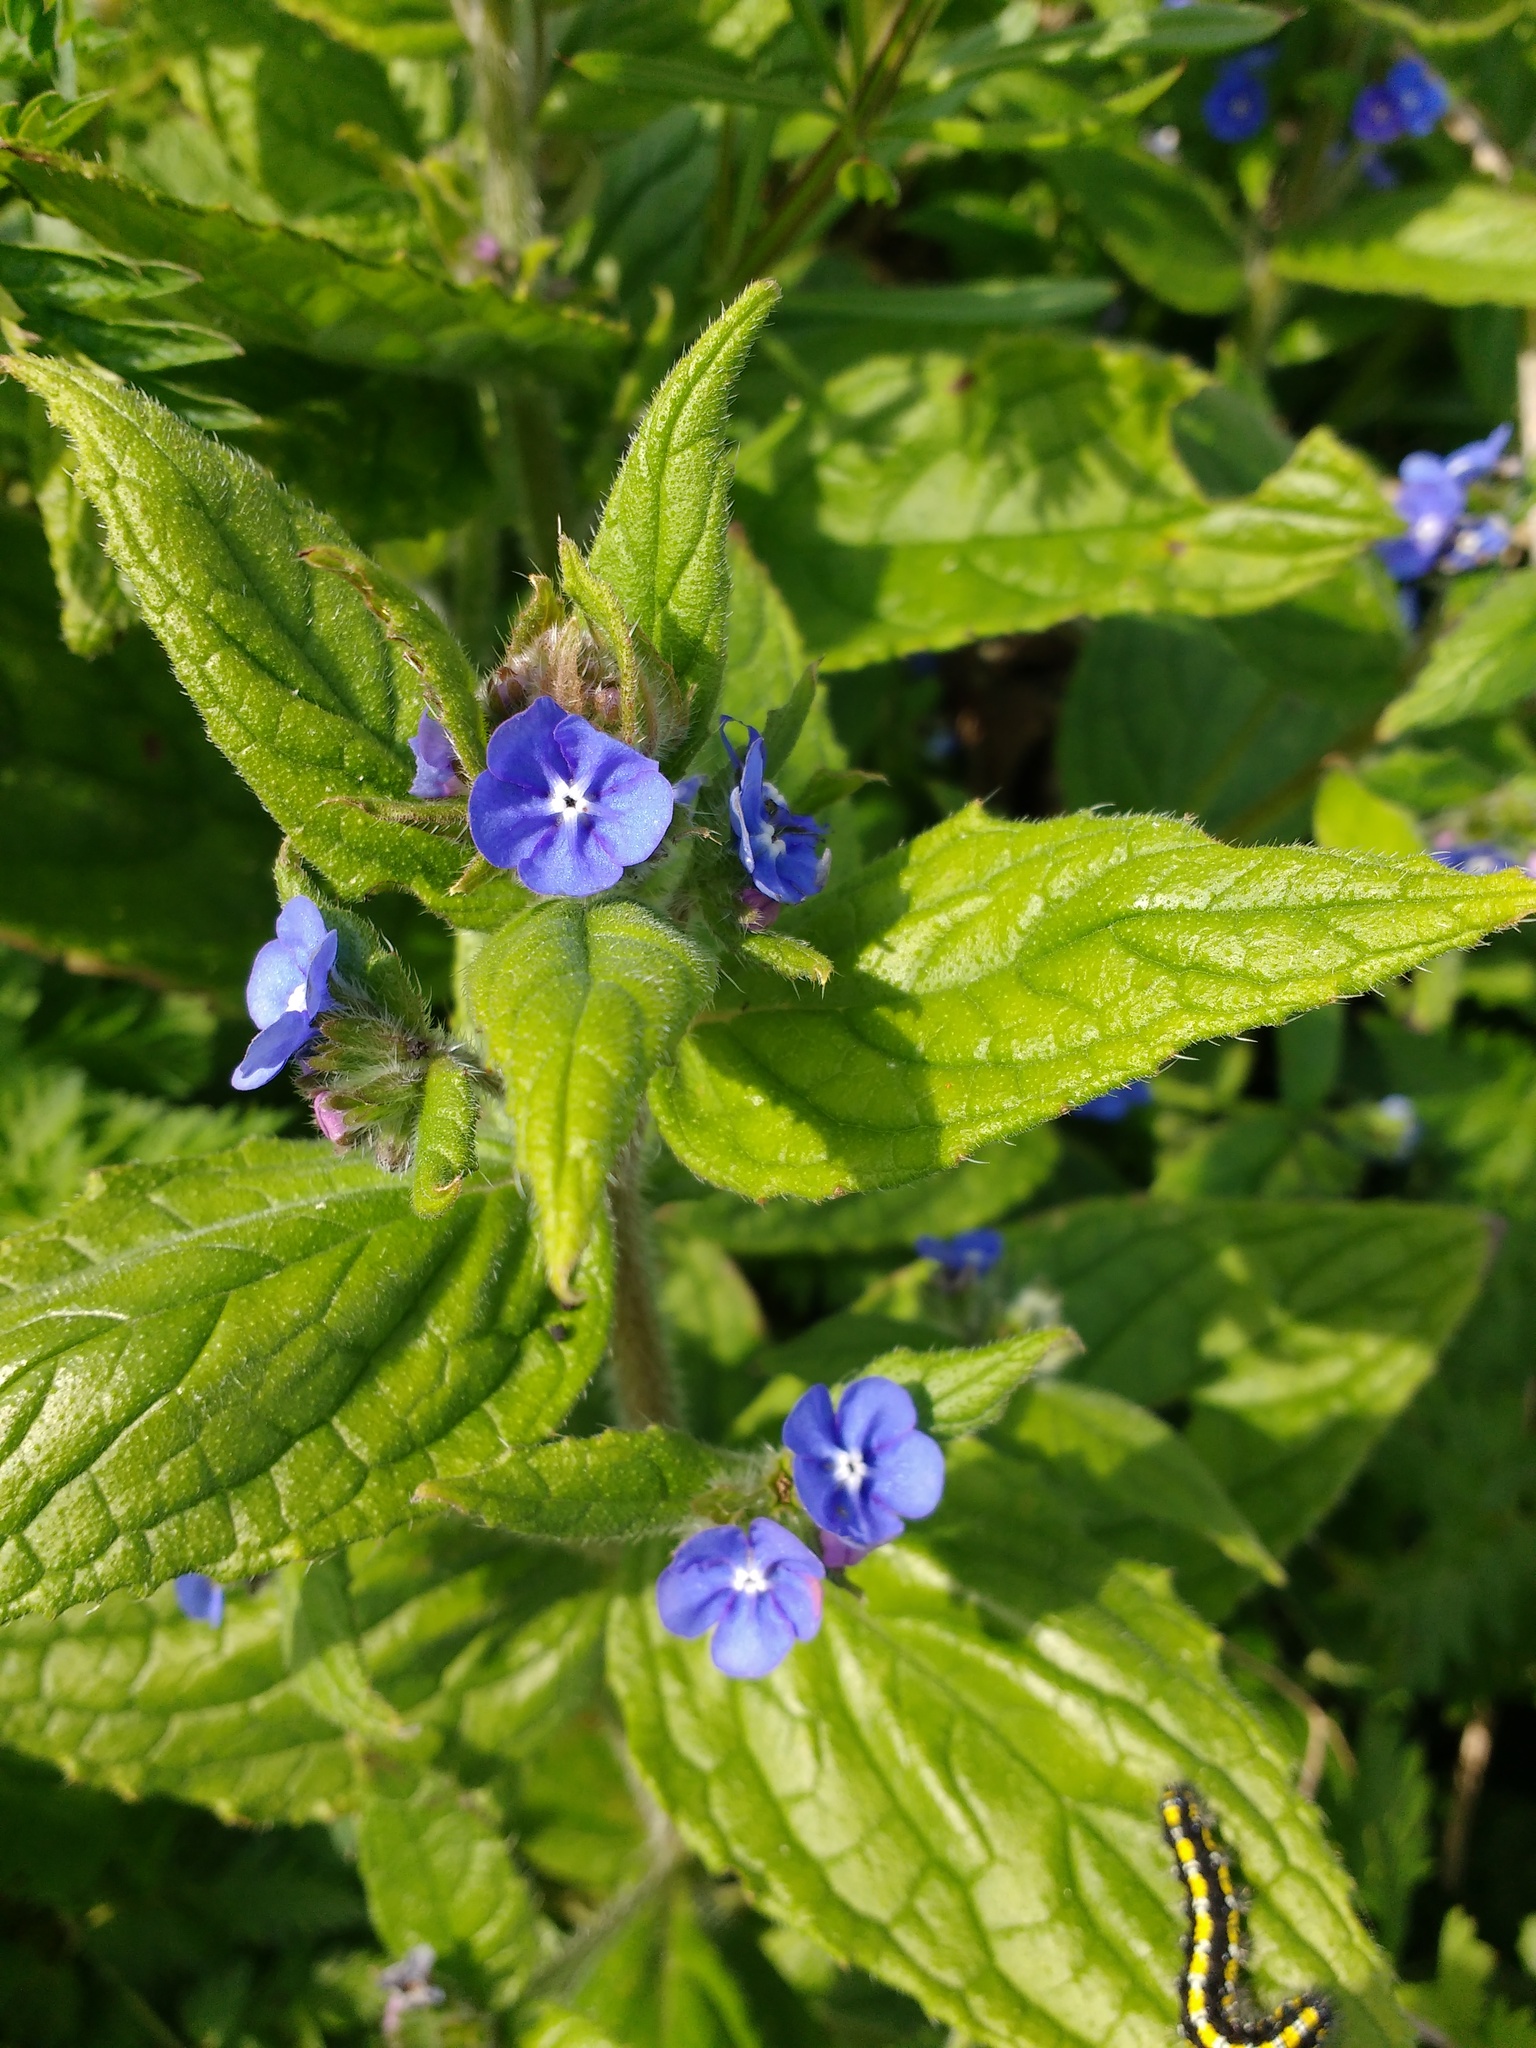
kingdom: Plantae
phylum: Tracheophyta
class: Magnoliopsida
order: Boraginales
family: Boraginaceae
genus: Pentaglottis
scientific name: Pentaglottis sempervirens
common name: Green alkanet
